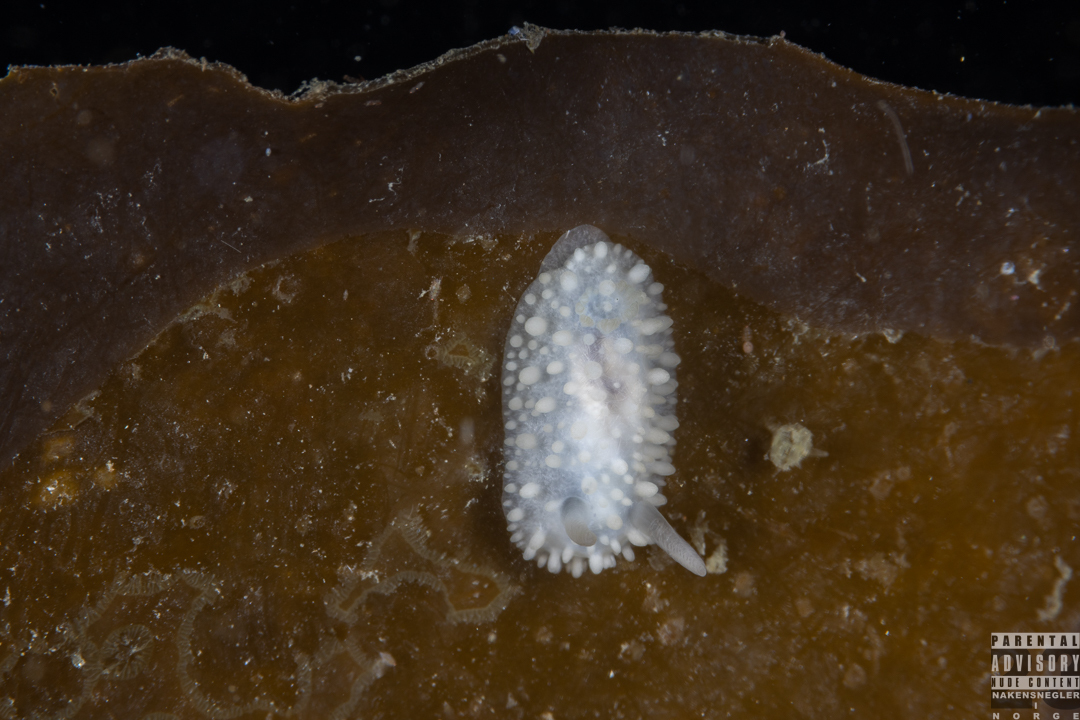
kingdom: Animalia
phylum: Mollusca
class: Gastropoda
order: Nudibranchia
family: Onchidorididae
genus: Adalaria
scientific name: Adalaria proxima
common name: False doris
